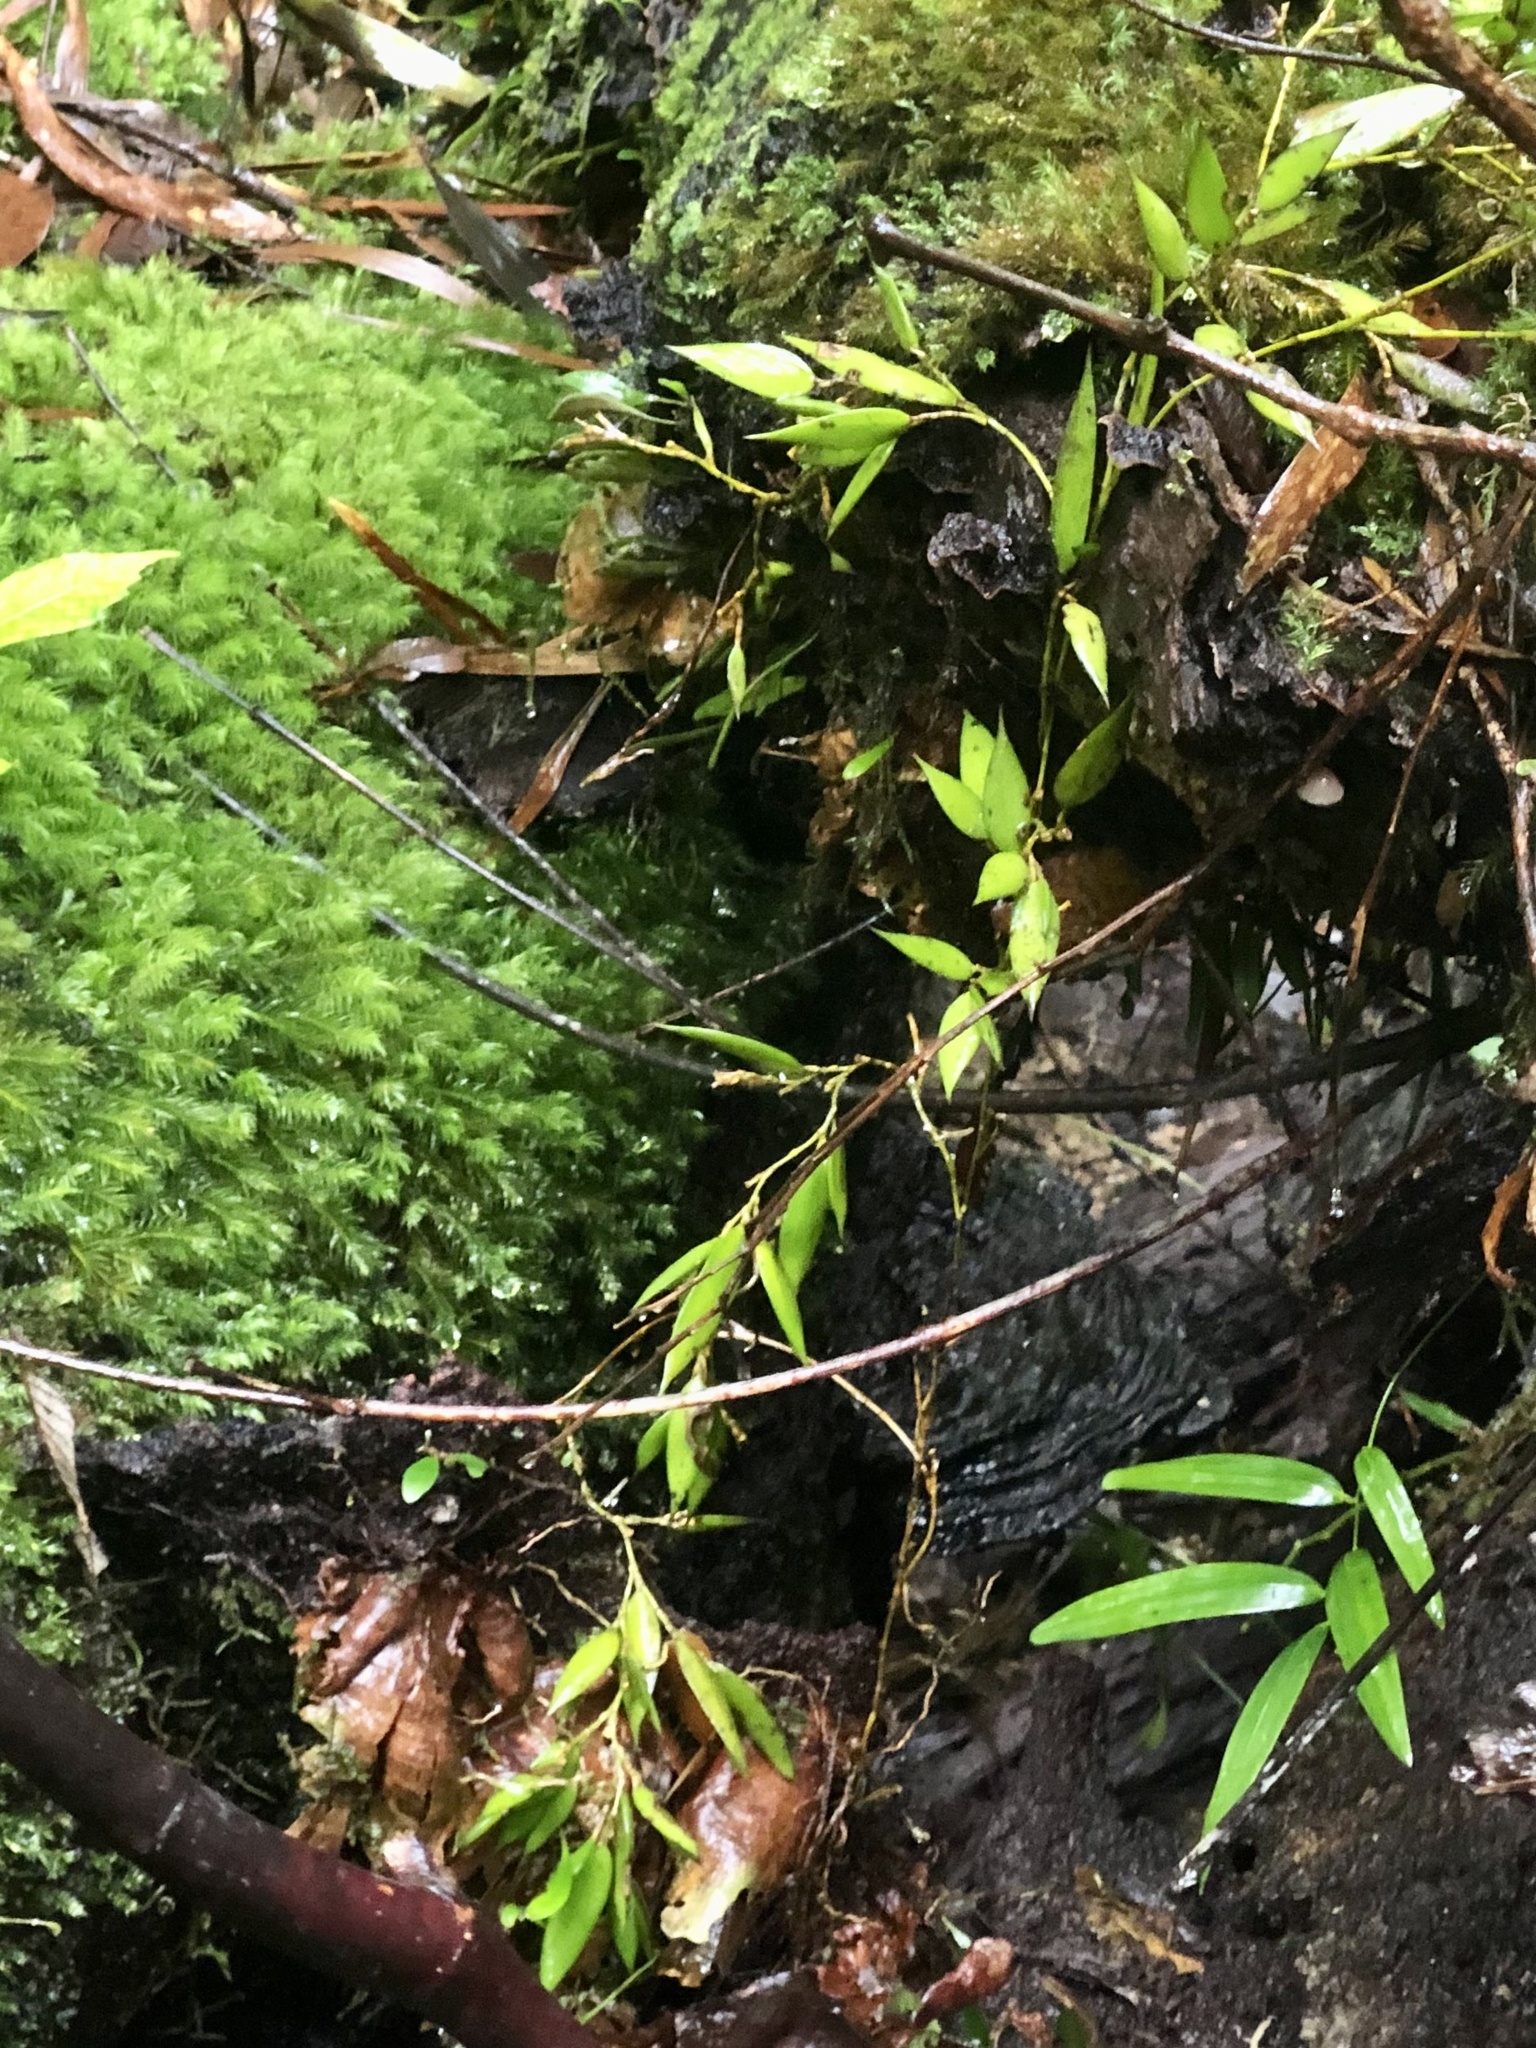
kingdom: Plantae
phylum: Tracheophyta
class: Liliopsida
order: Asparagales
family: Orchidaceae
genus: Dendrobium
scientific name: Dendrobium pugioniforme
